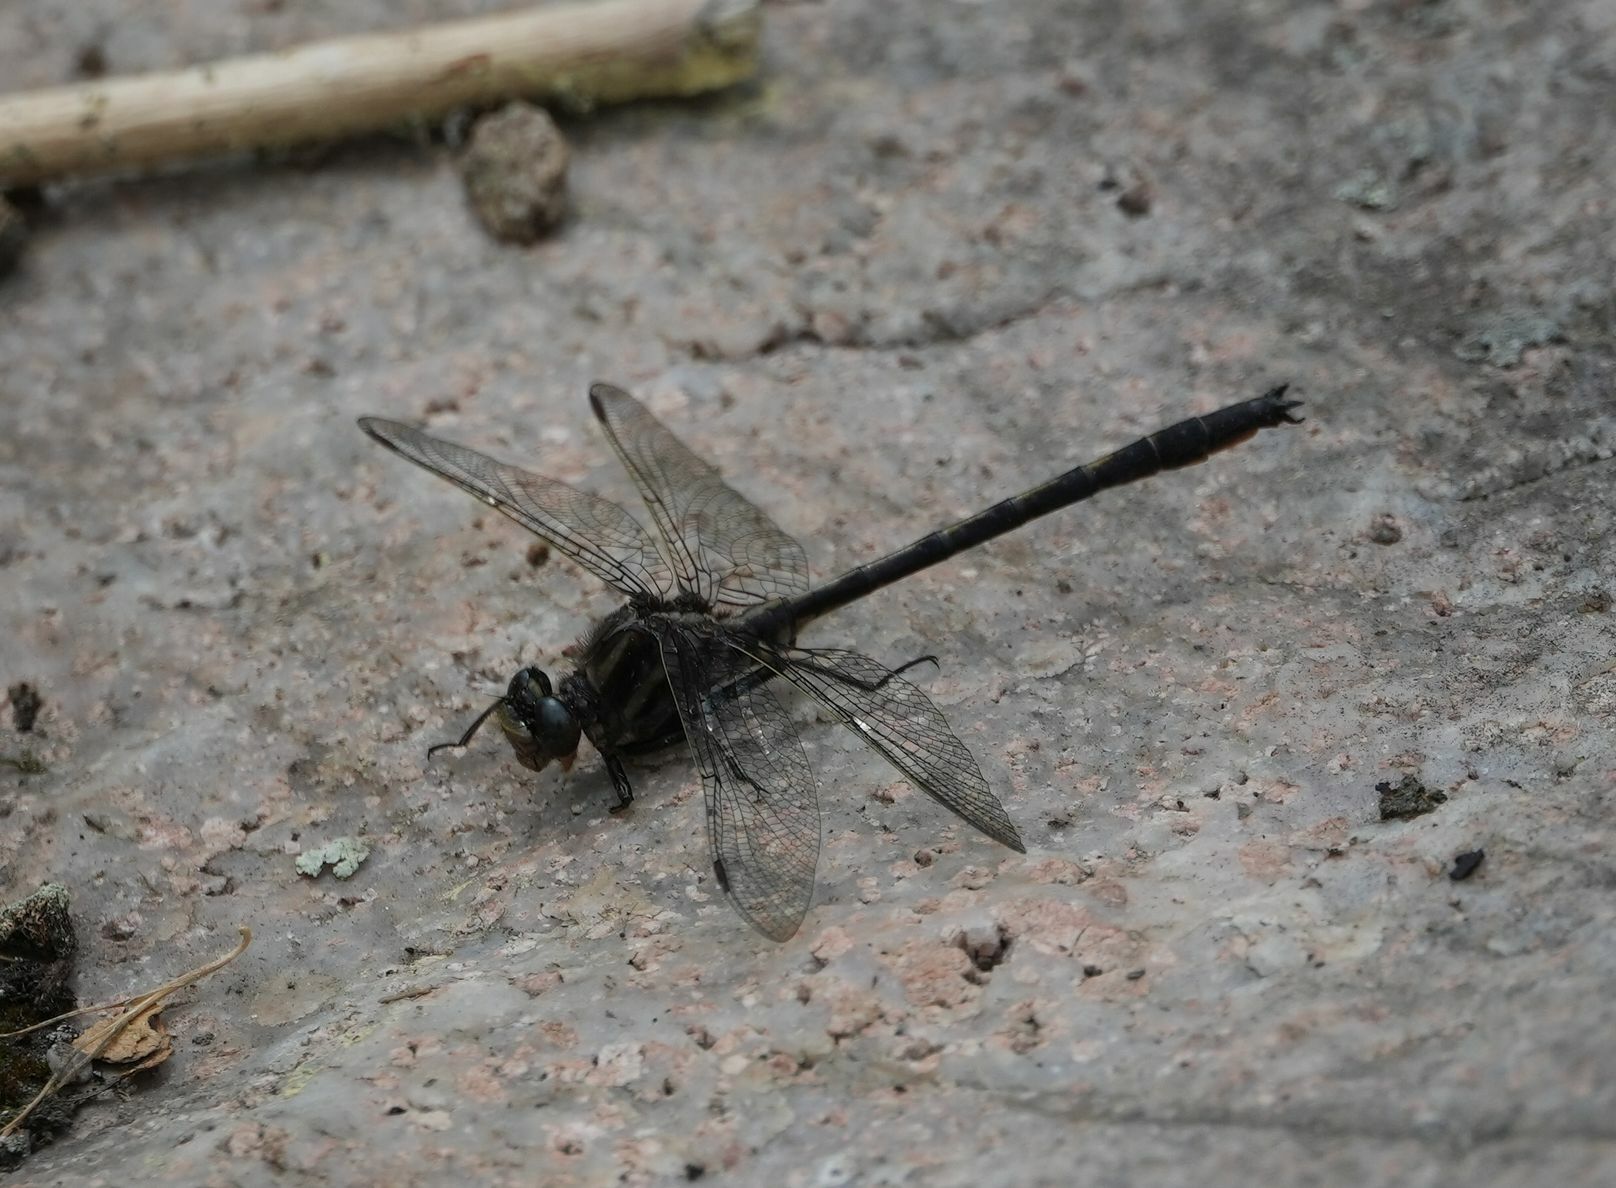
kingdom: Animalia
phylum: Arthropoda
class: Insecta
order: Odonata
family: Gomphidae
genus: Phanogomphus
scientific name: Phanogomphus spicatus
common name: Dusky clubtail
